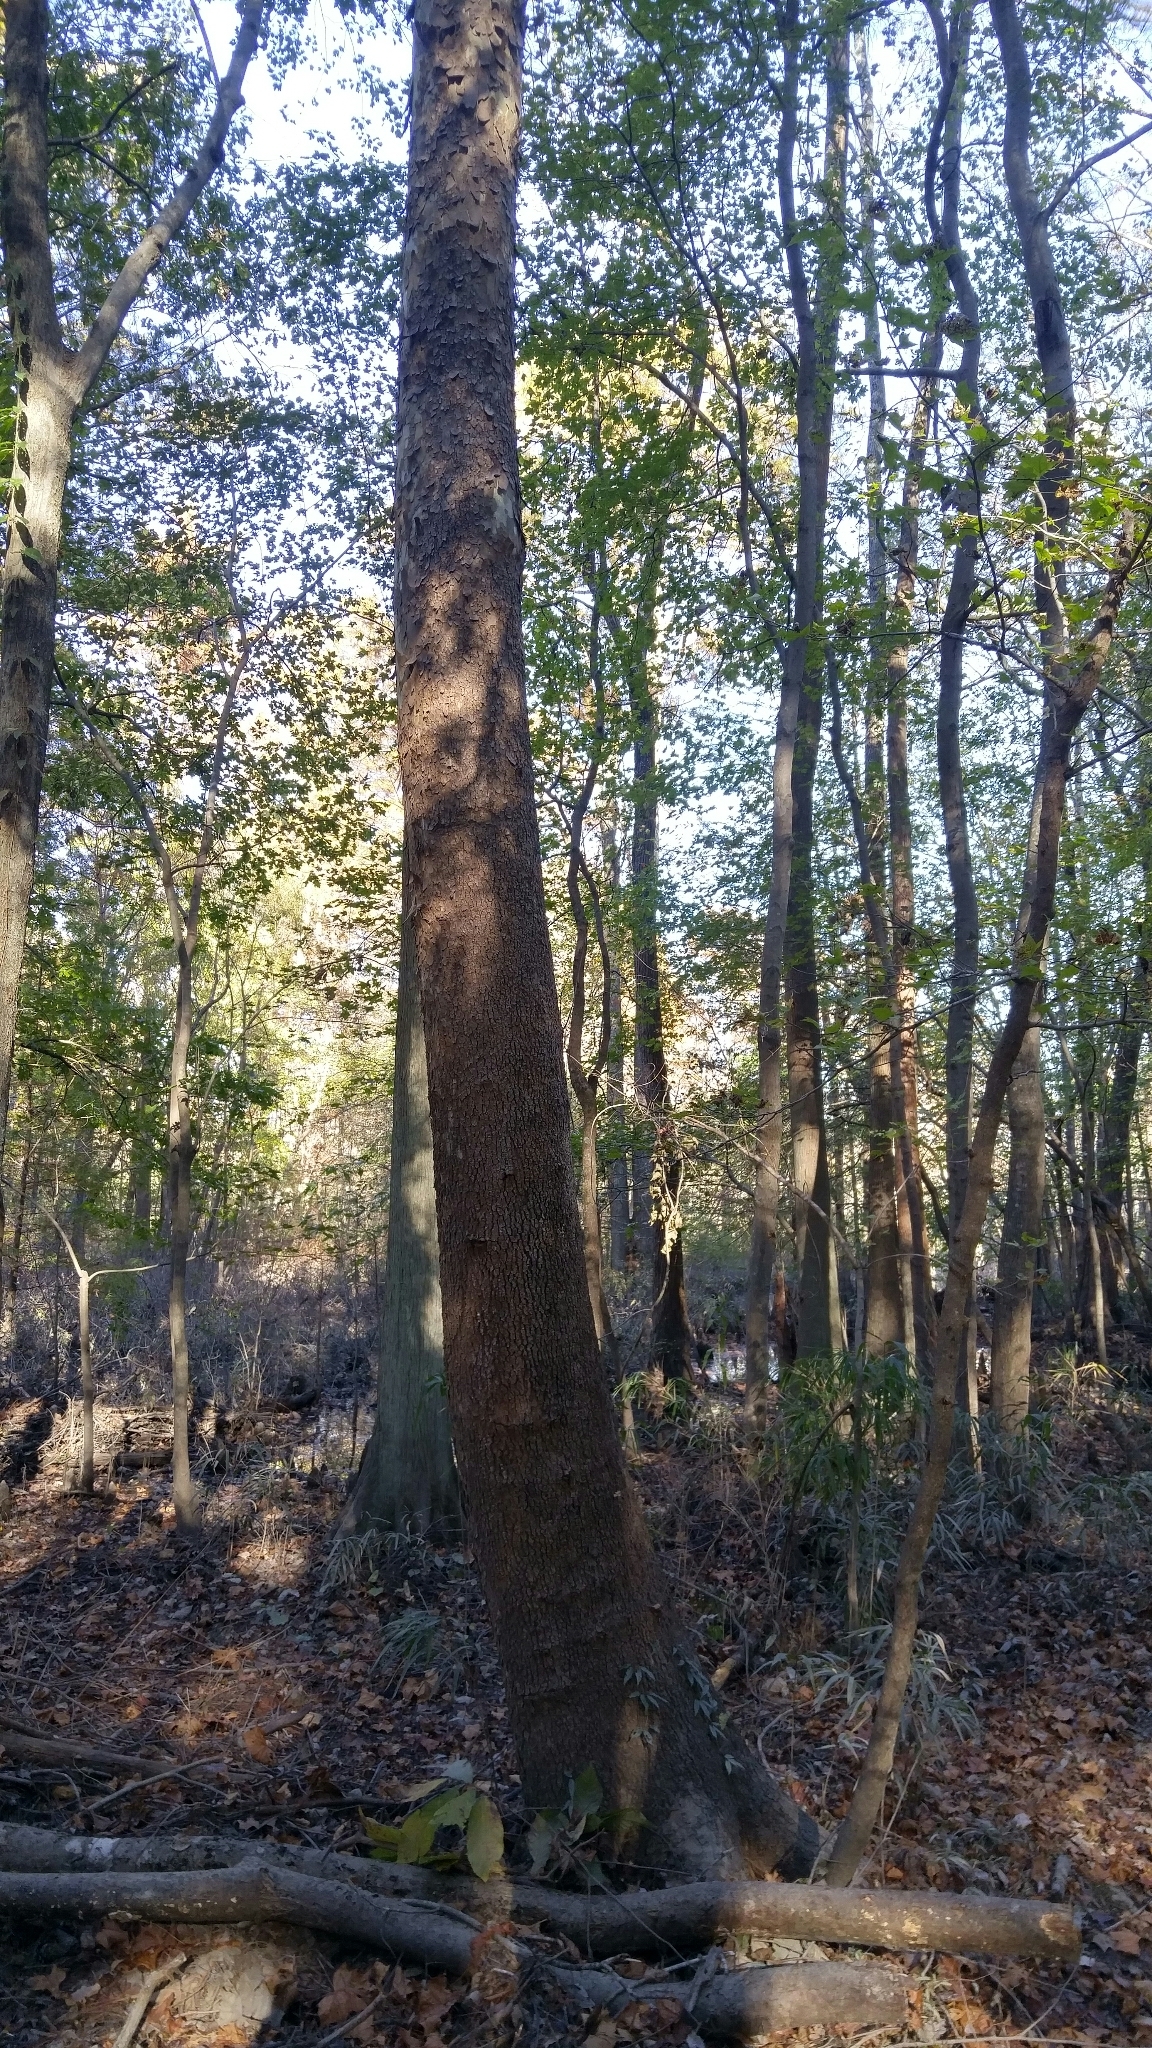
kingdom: Plantae
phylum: Tracheophyta
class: Magnoliopsida
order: Proteales
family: Platanaceae
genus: Platanus
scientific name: Platanus occidentalis
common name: American sycamore
